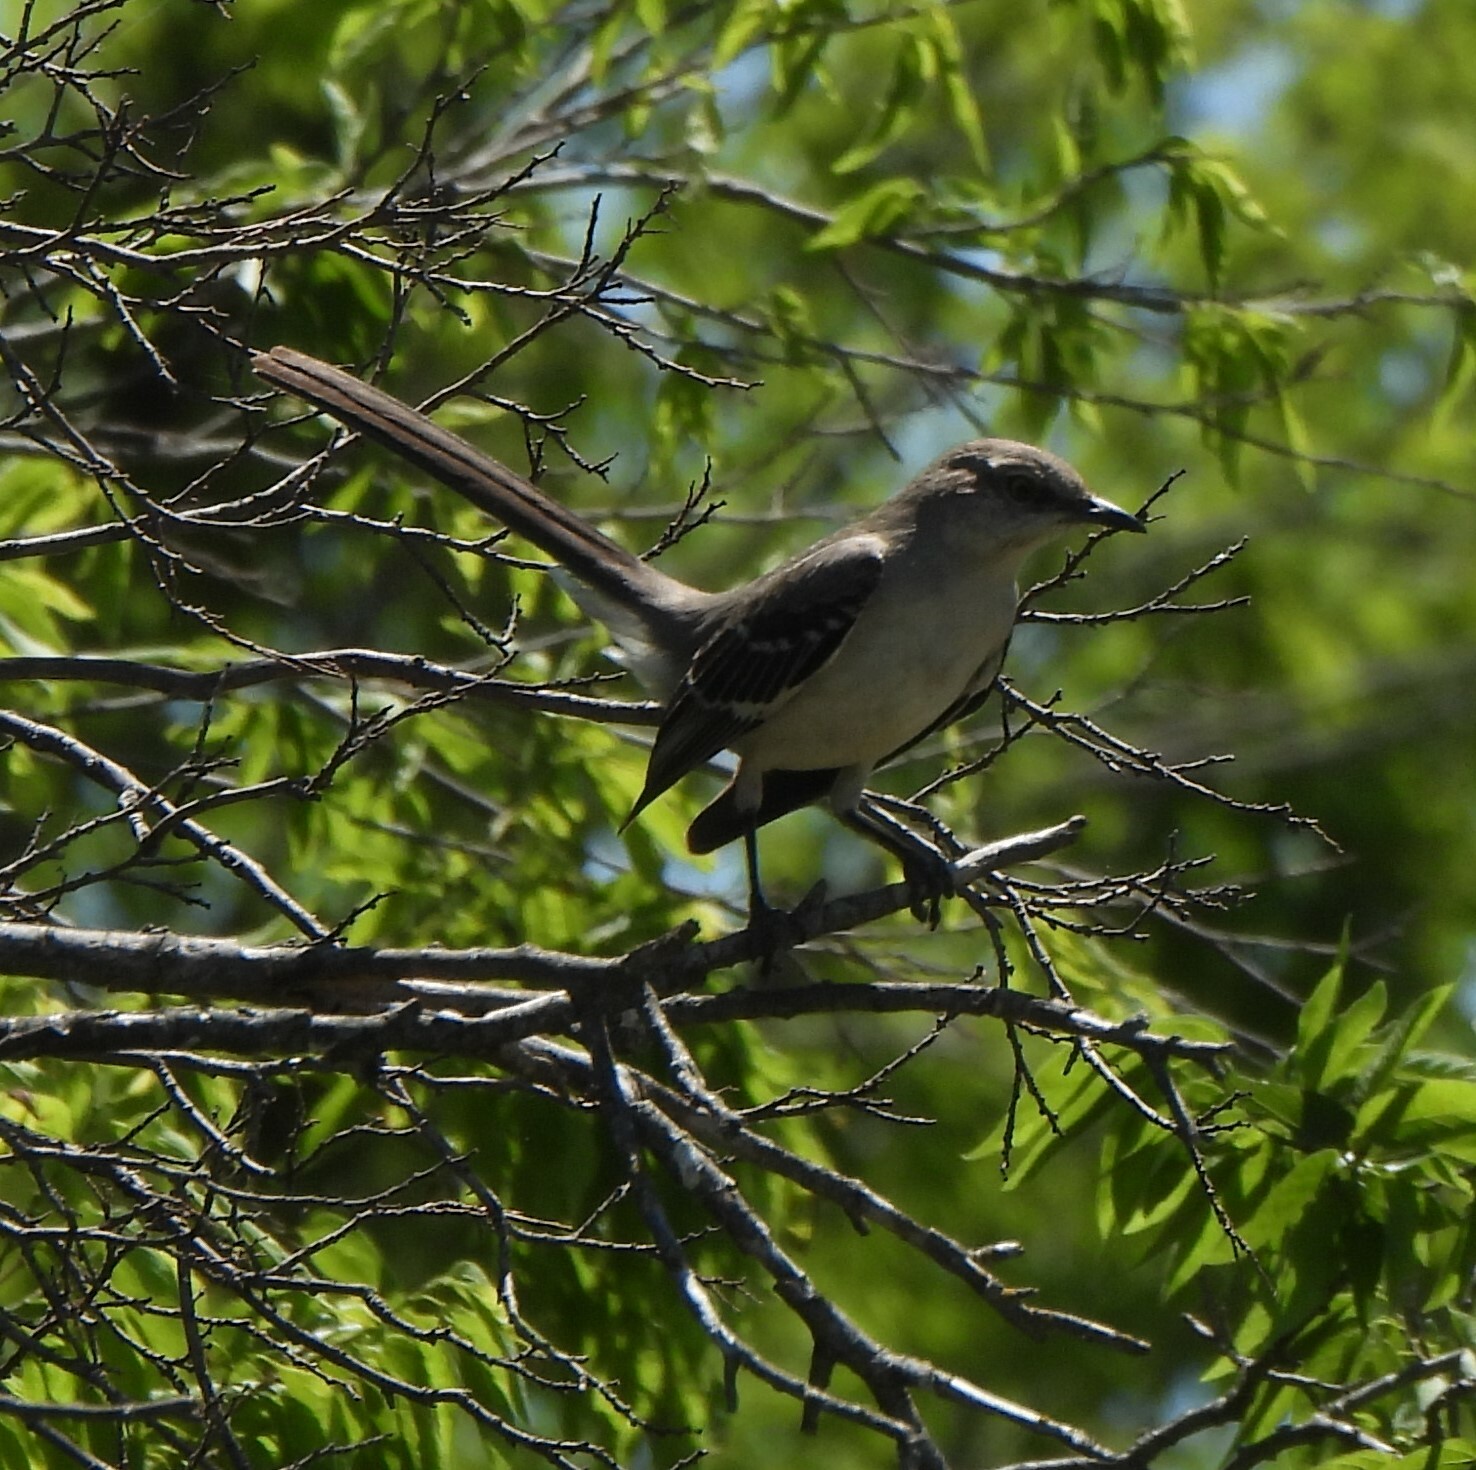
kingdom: Animalia
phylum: Chordata
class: Aves
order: Passeriformes
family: Mimidae
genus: Mimus
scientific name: Mimus polyglottos
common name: Northern mockingbird
